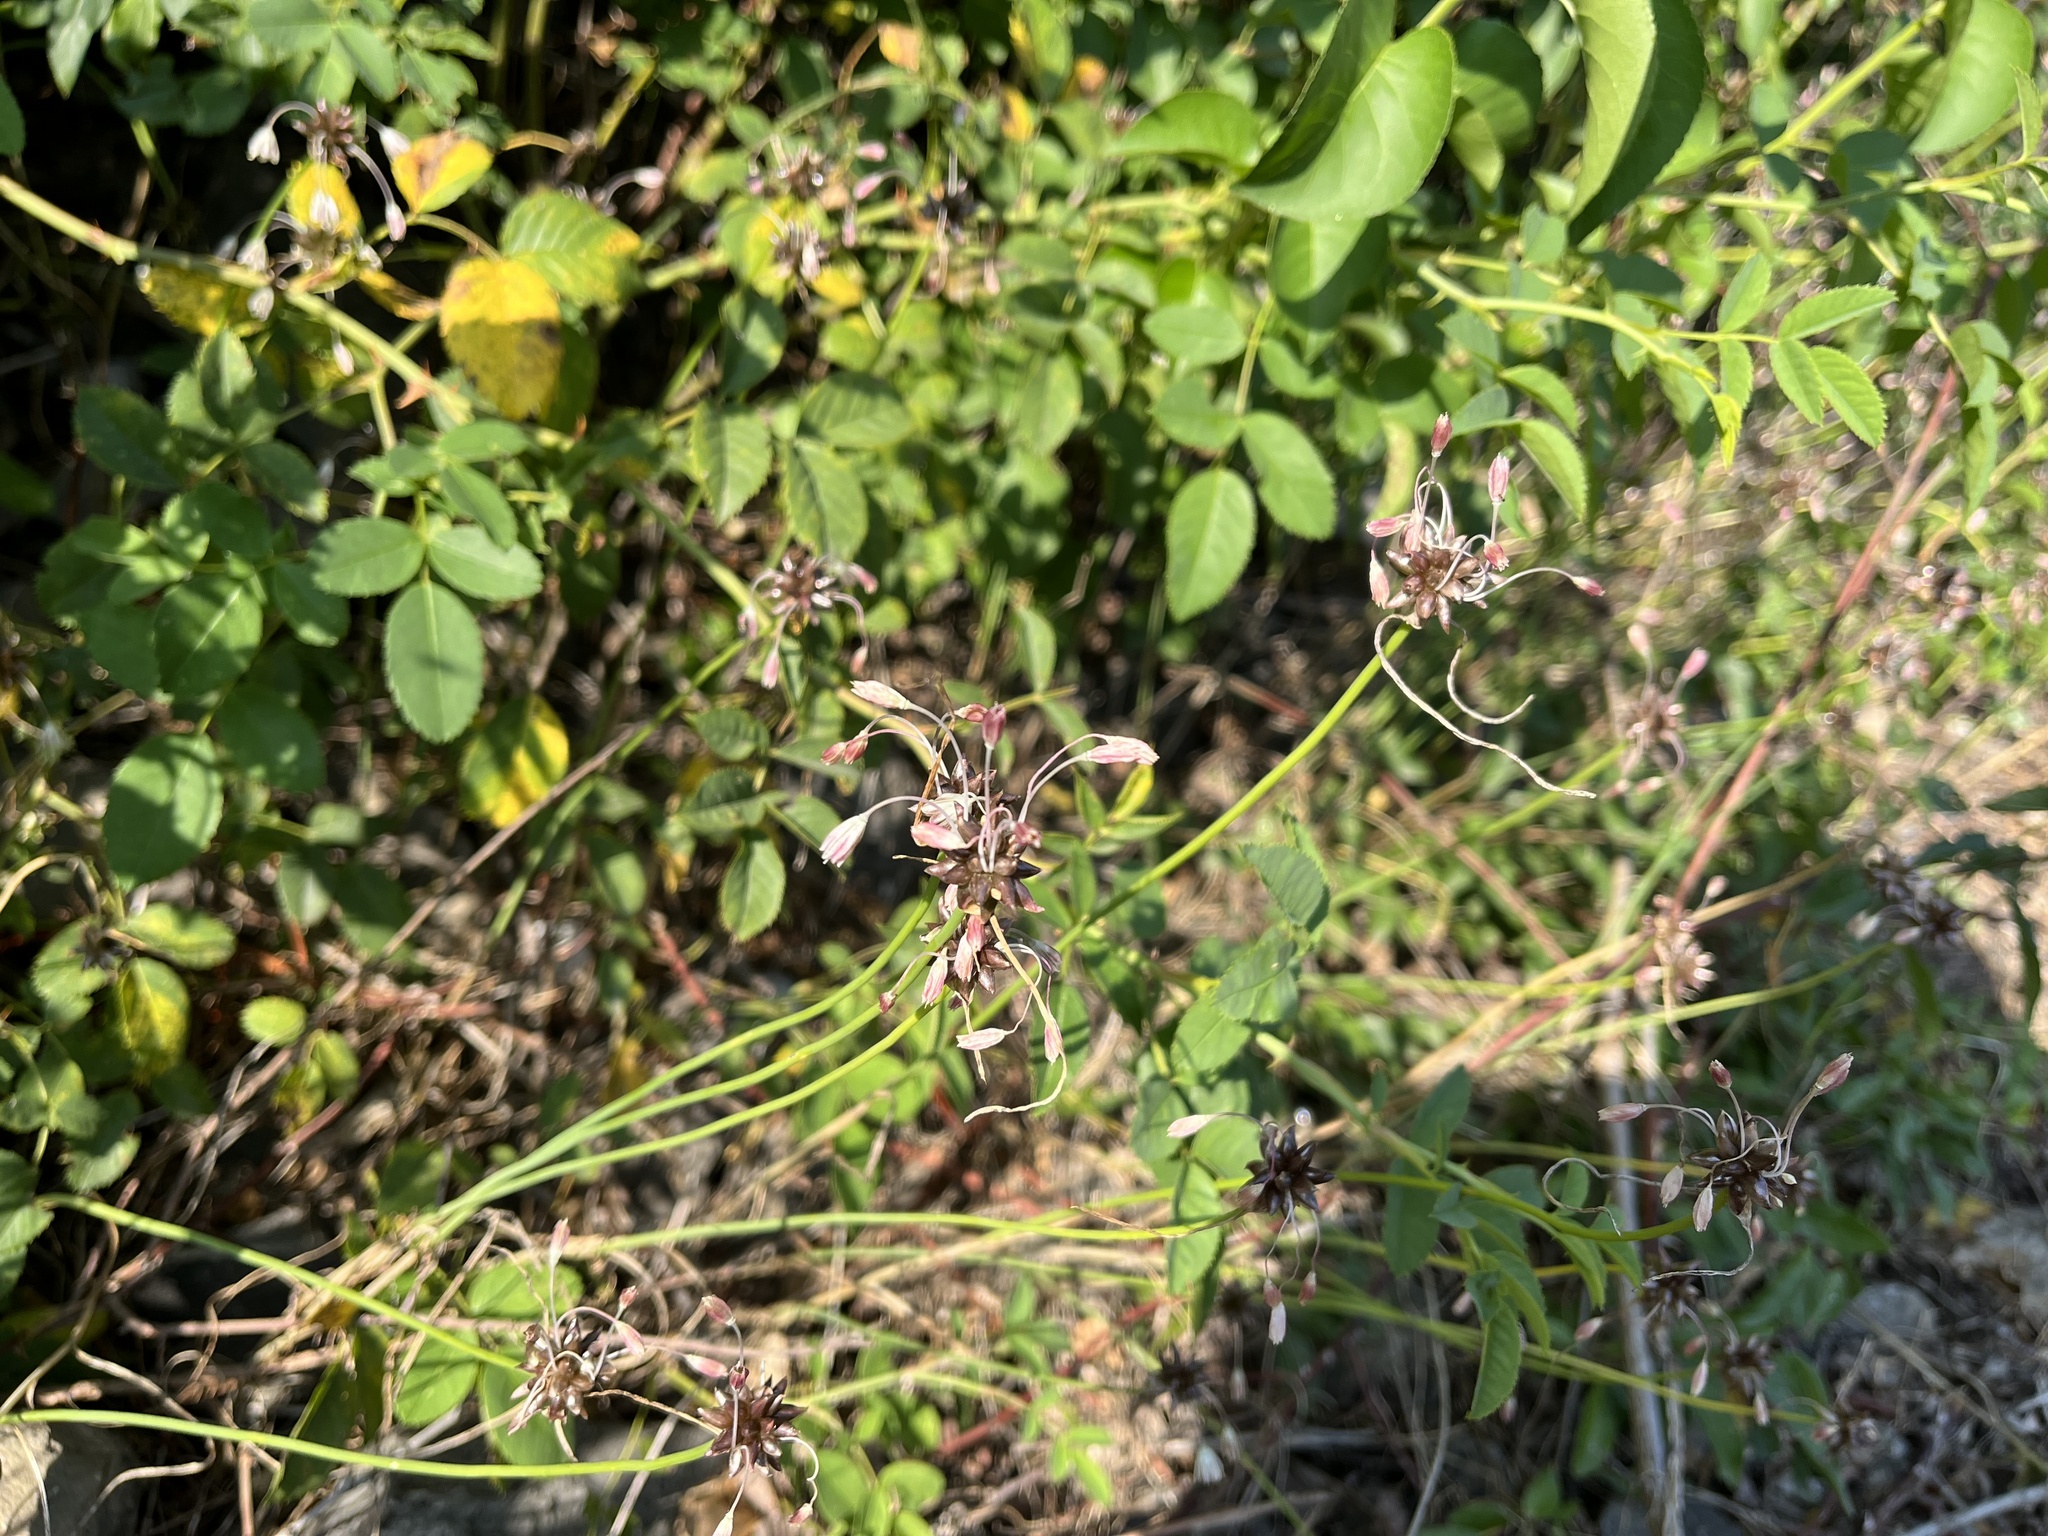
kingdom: Plantae
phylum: Tracheophyta
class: Liliopsida
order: Asparagales
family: Amaryllidaceae
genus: Allium
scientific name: Allium oleraceum
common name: Field garlic
